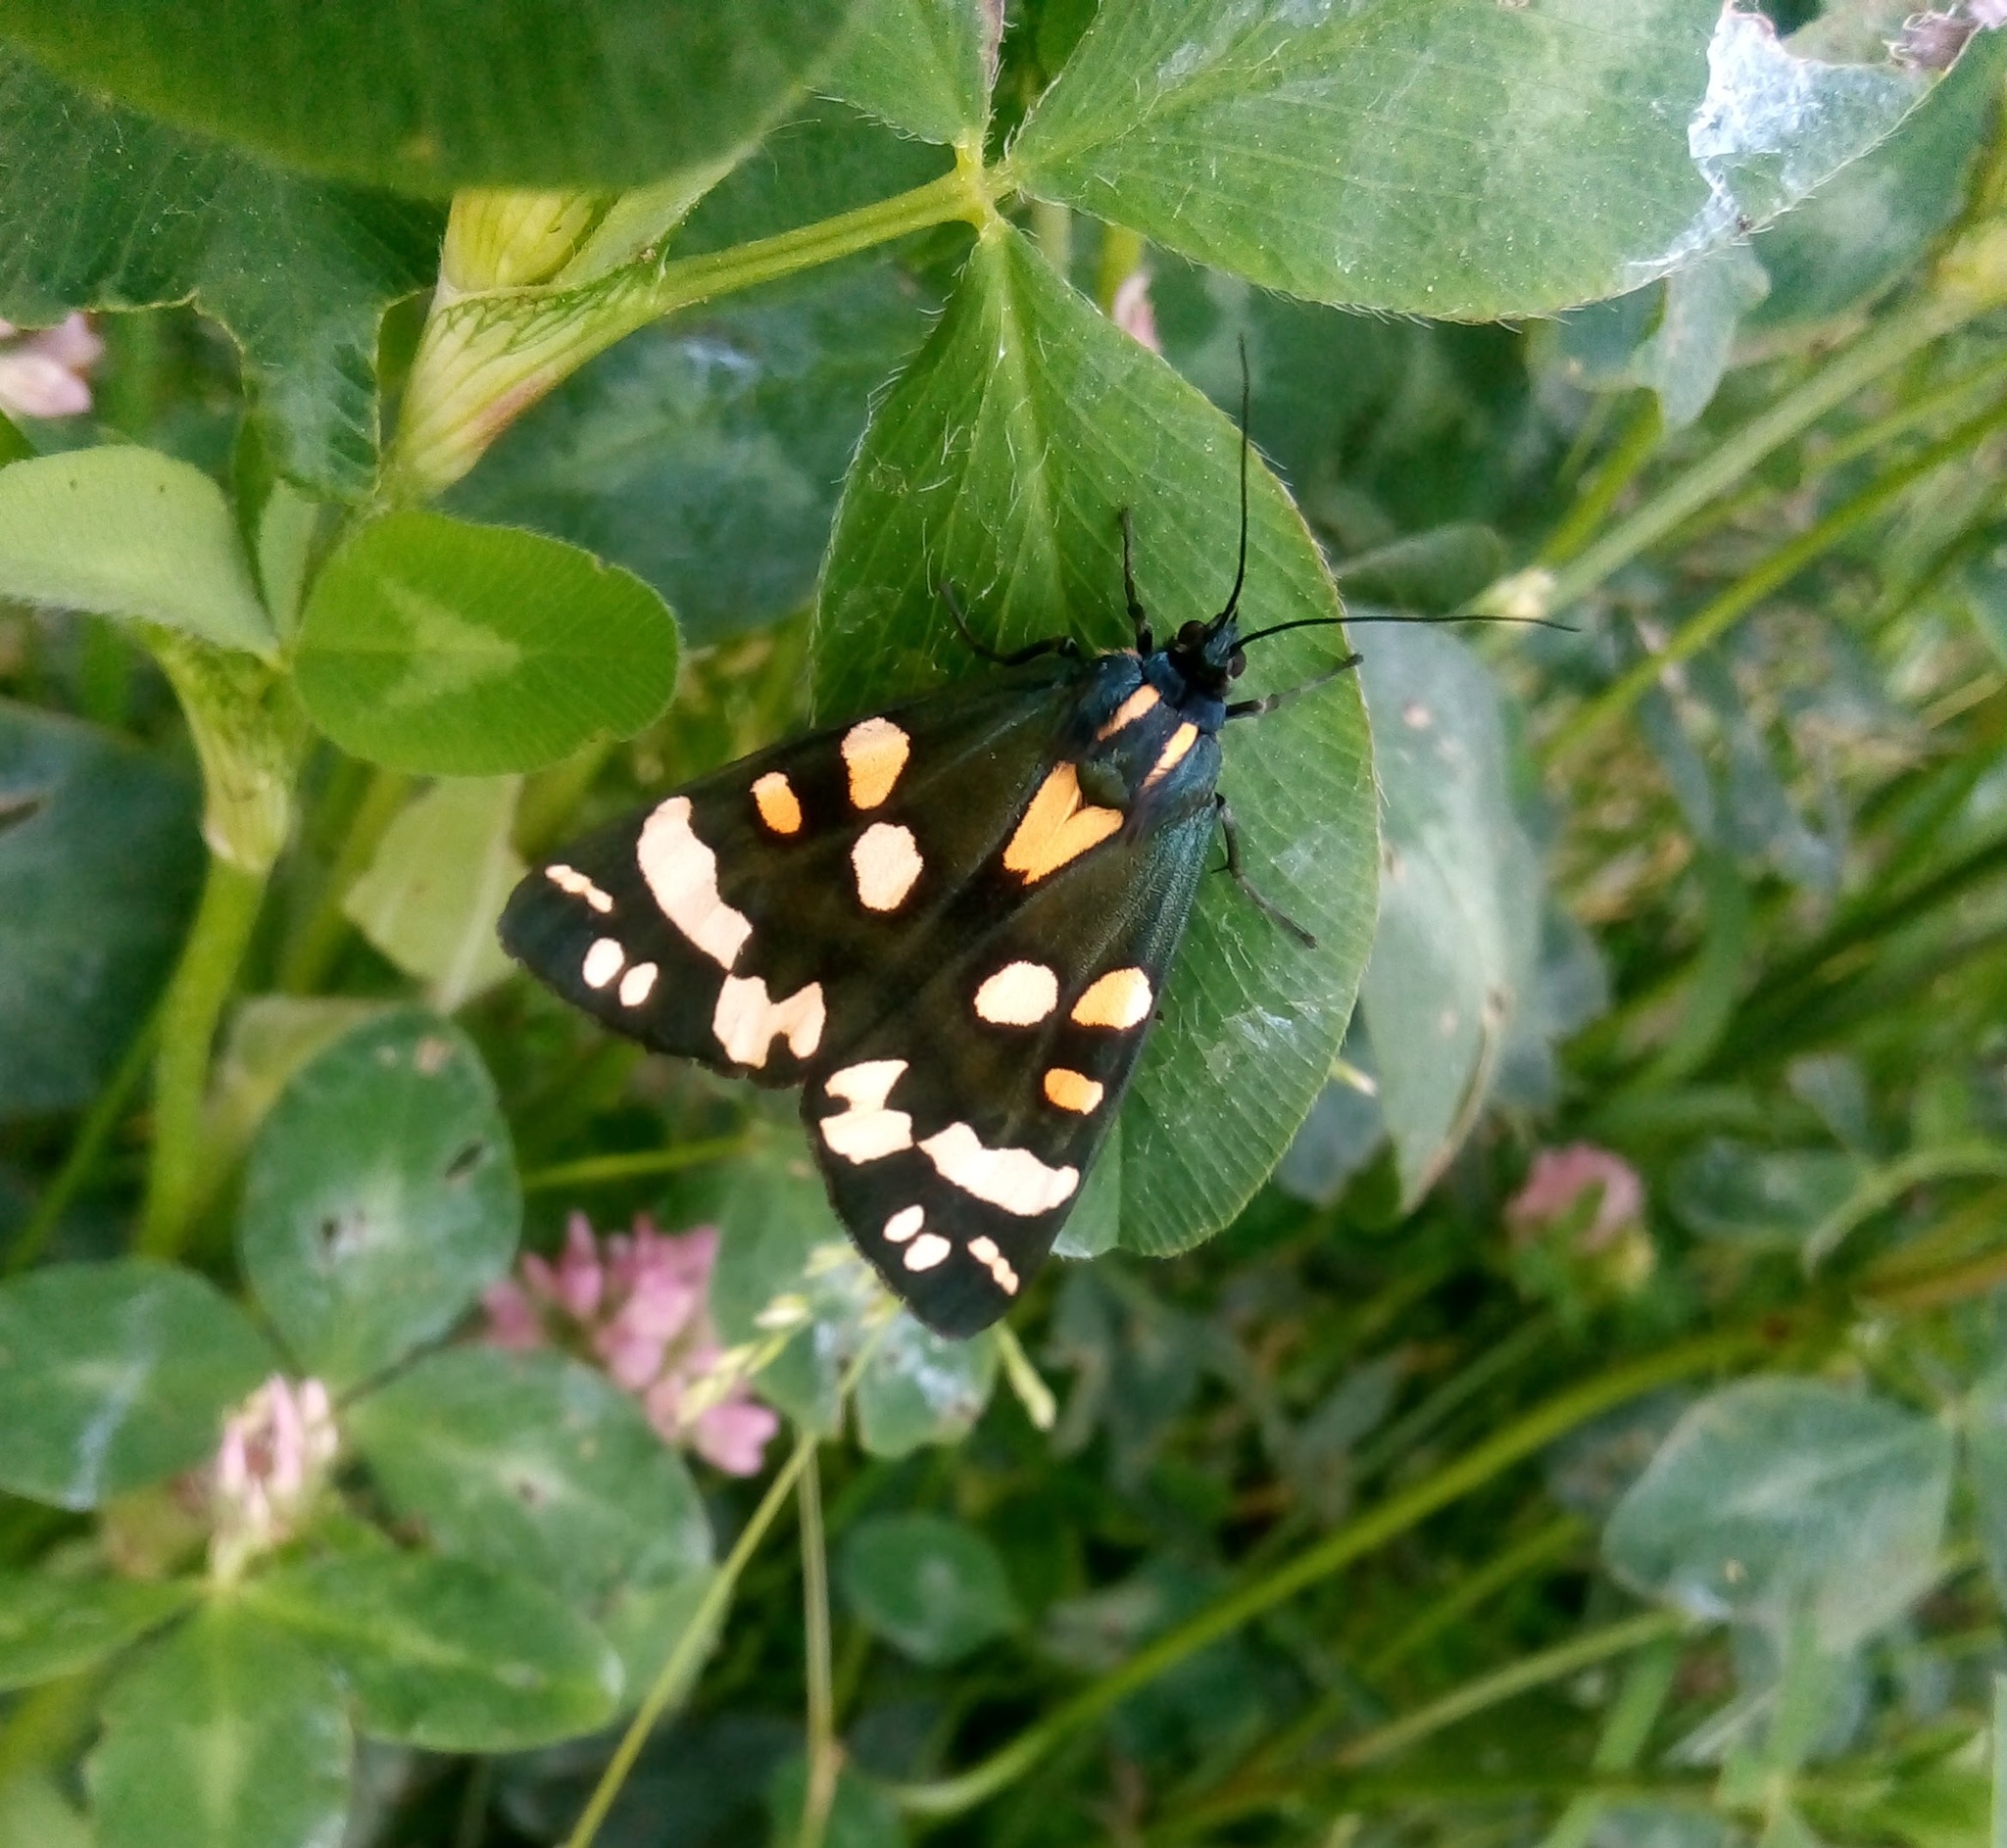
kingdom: Animalia
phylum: Arthropoda
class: Insecta
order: Lepidoptera
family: Erebidae
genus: Callimorpha
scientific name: Callimorpha dominula
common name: Scarlet tiger
